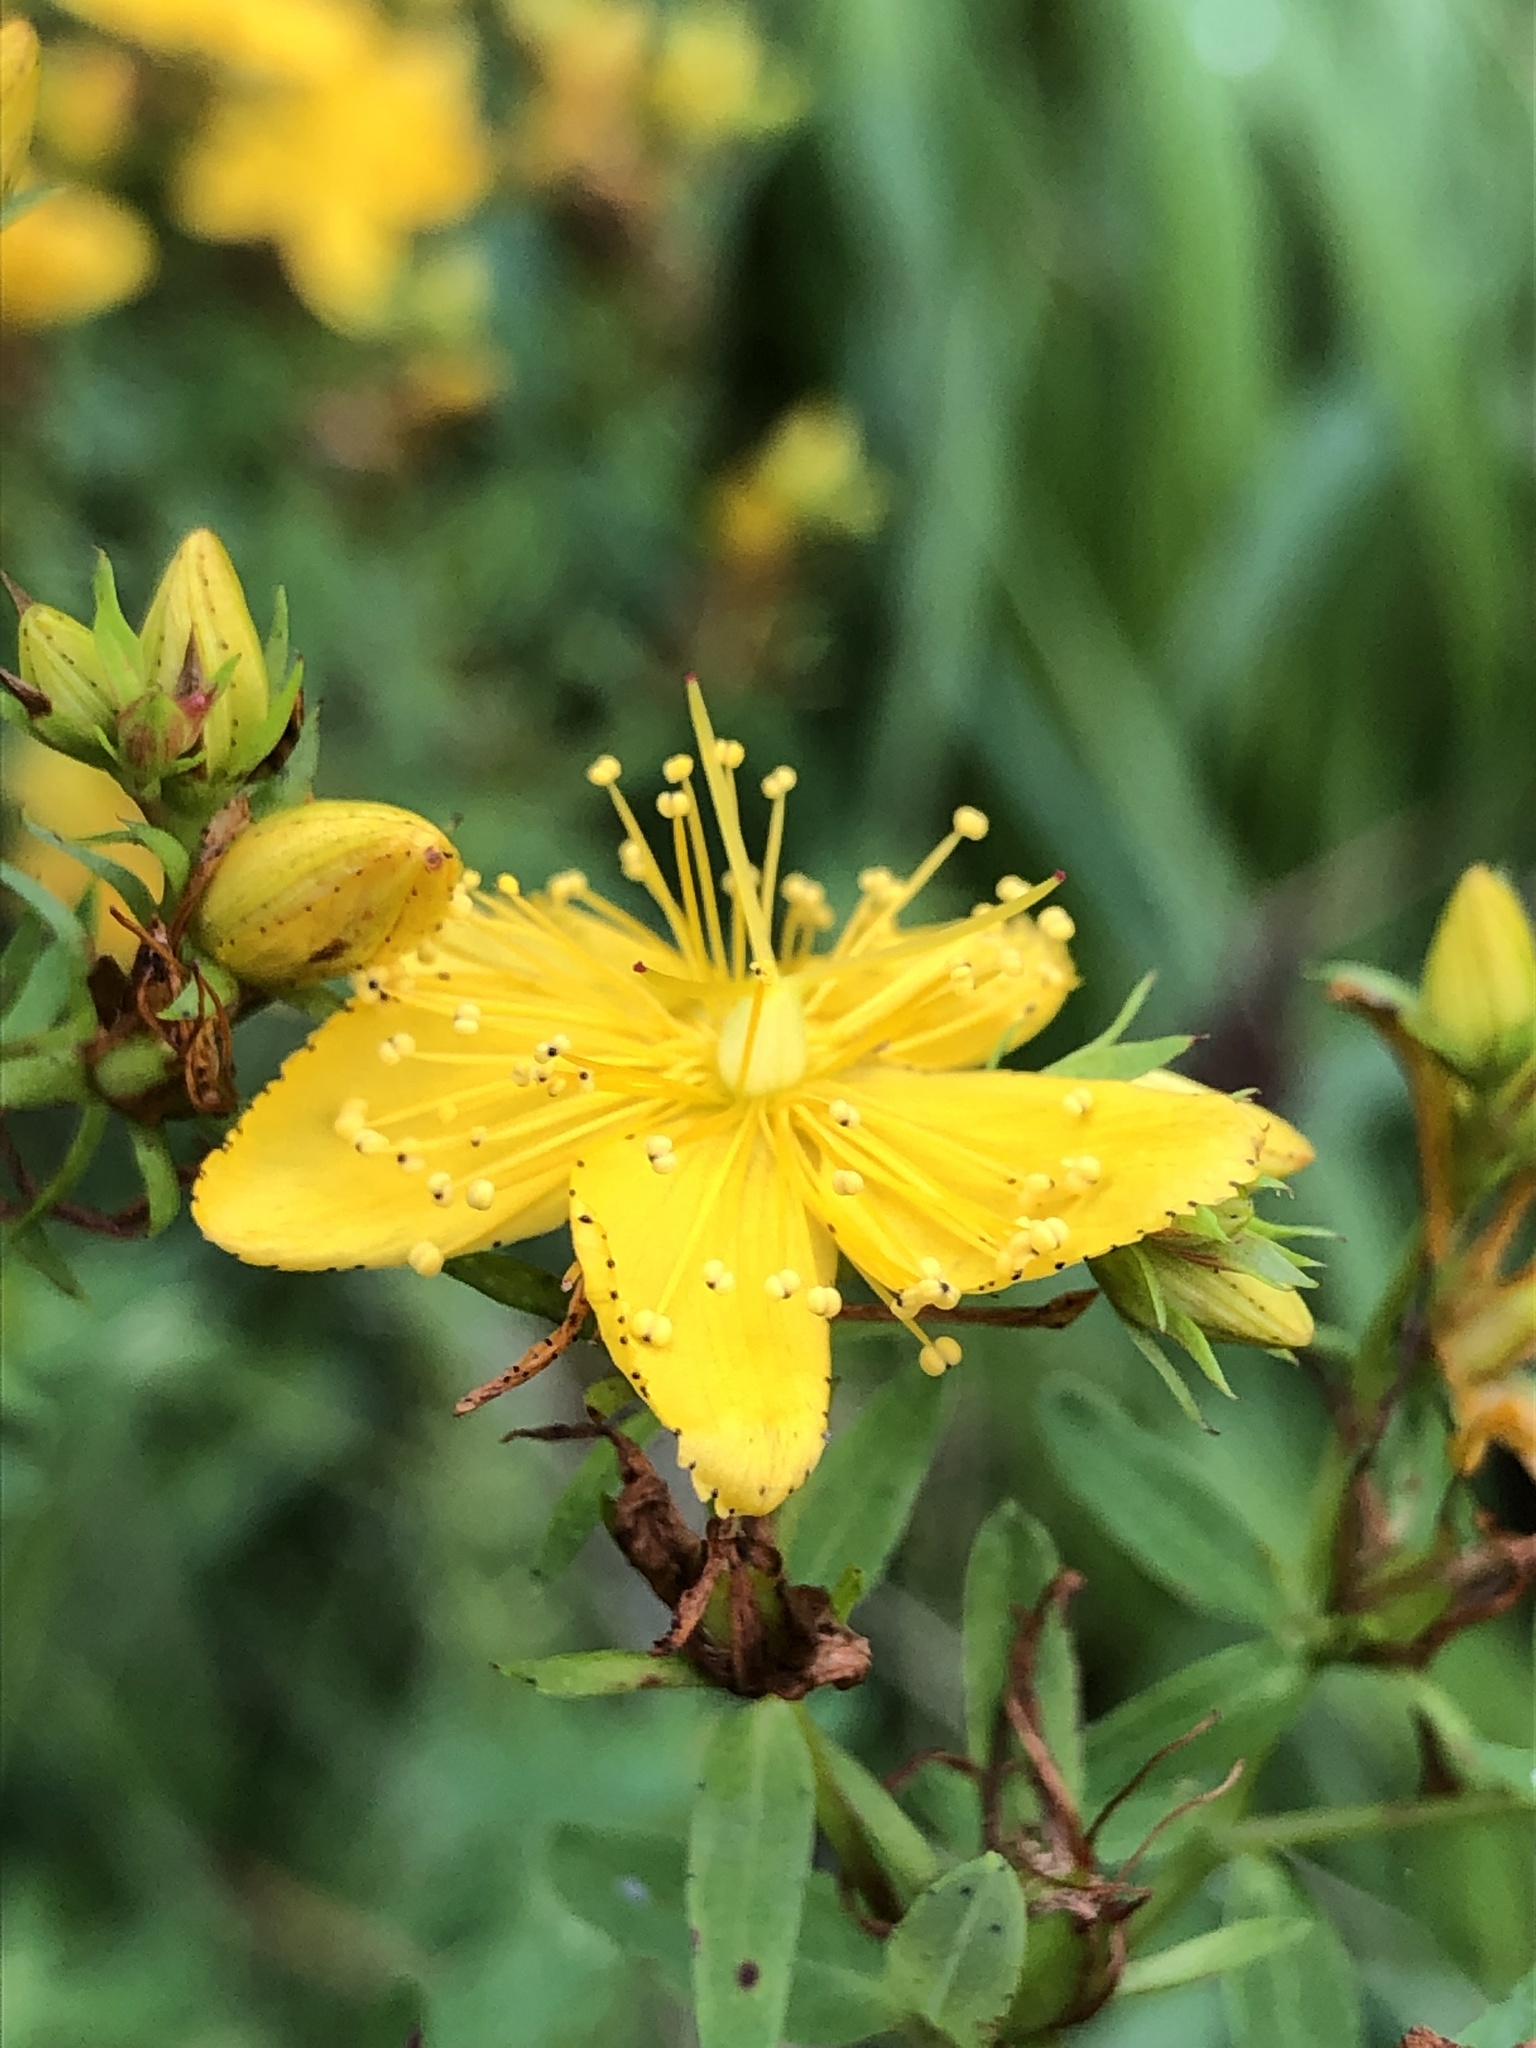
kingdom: Plantae
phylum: Tracheophyta
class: Magnoliopsida
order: Malpighiales
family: Hypericaceae
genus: Hypericum
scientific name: Hypericum perforatum
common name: Common st. johnswort
